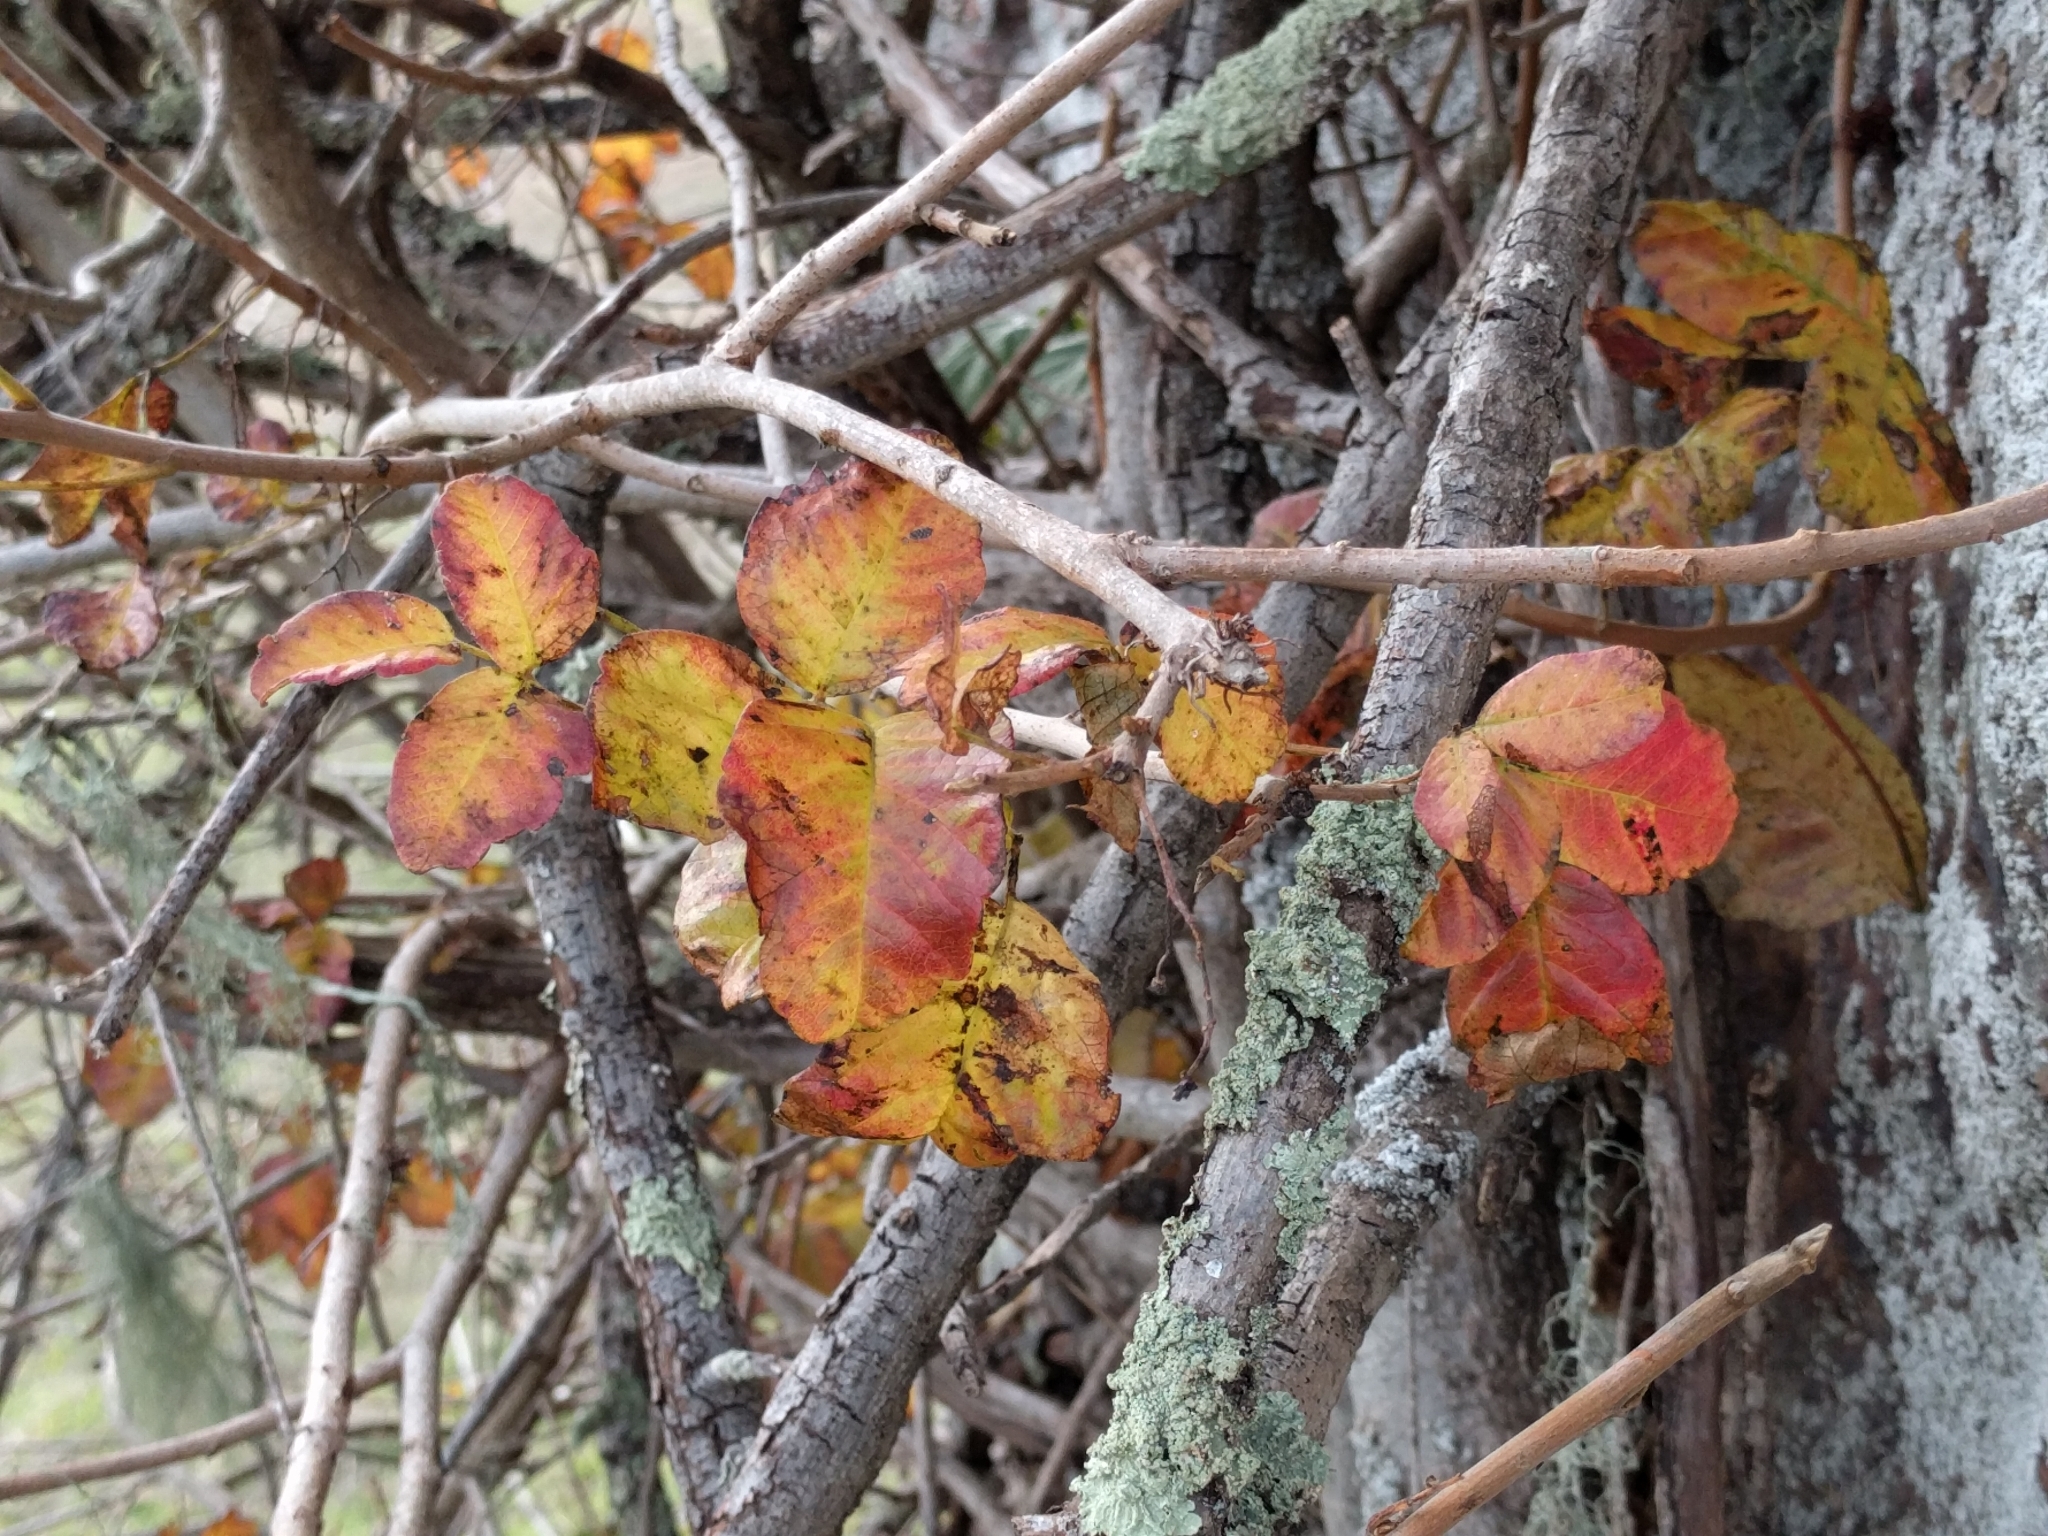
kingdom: Plantae
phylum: Tracheophyta
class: Magnoliopsida
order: Sapindales
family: Anacardiaceae
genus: Toxicodendron
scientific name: Toxicodendron diversilobum
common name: Pacific poison-oak
